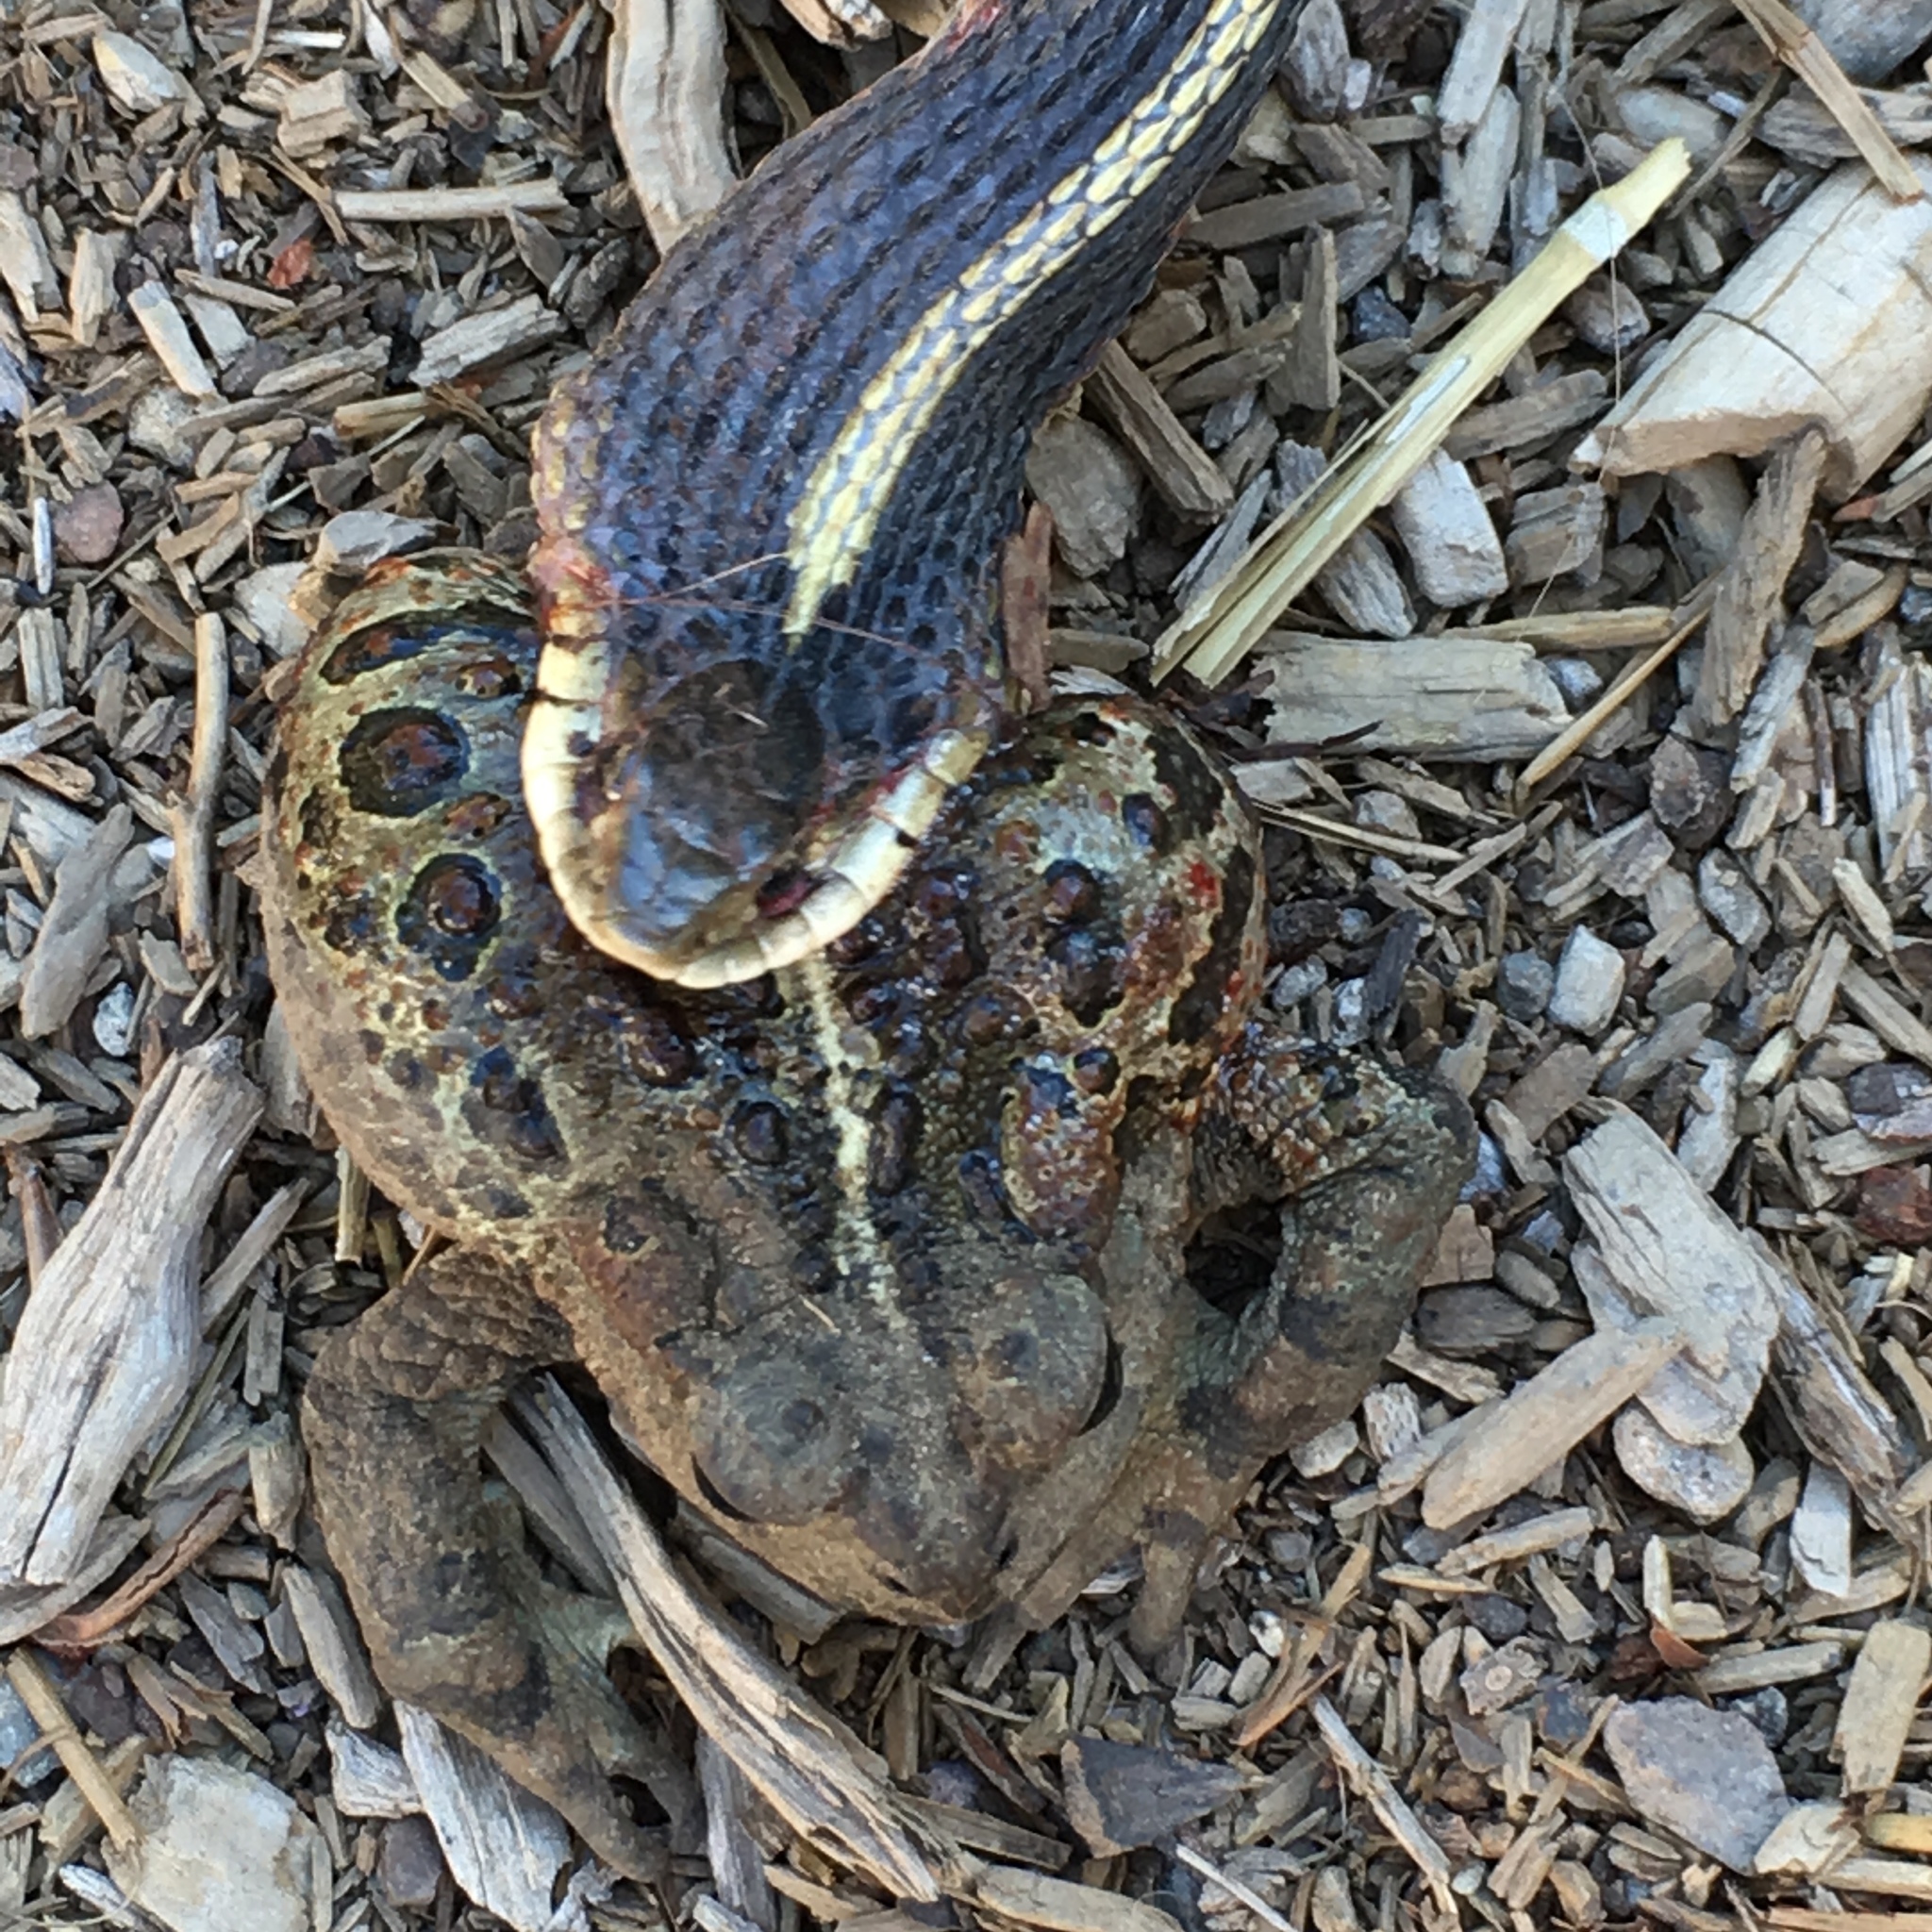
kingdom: Animalia
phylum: Chordata
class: Squamata
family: Colubridae
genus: Thamnophis
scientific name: Thamnophis sirtalis
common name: Common garter snake
